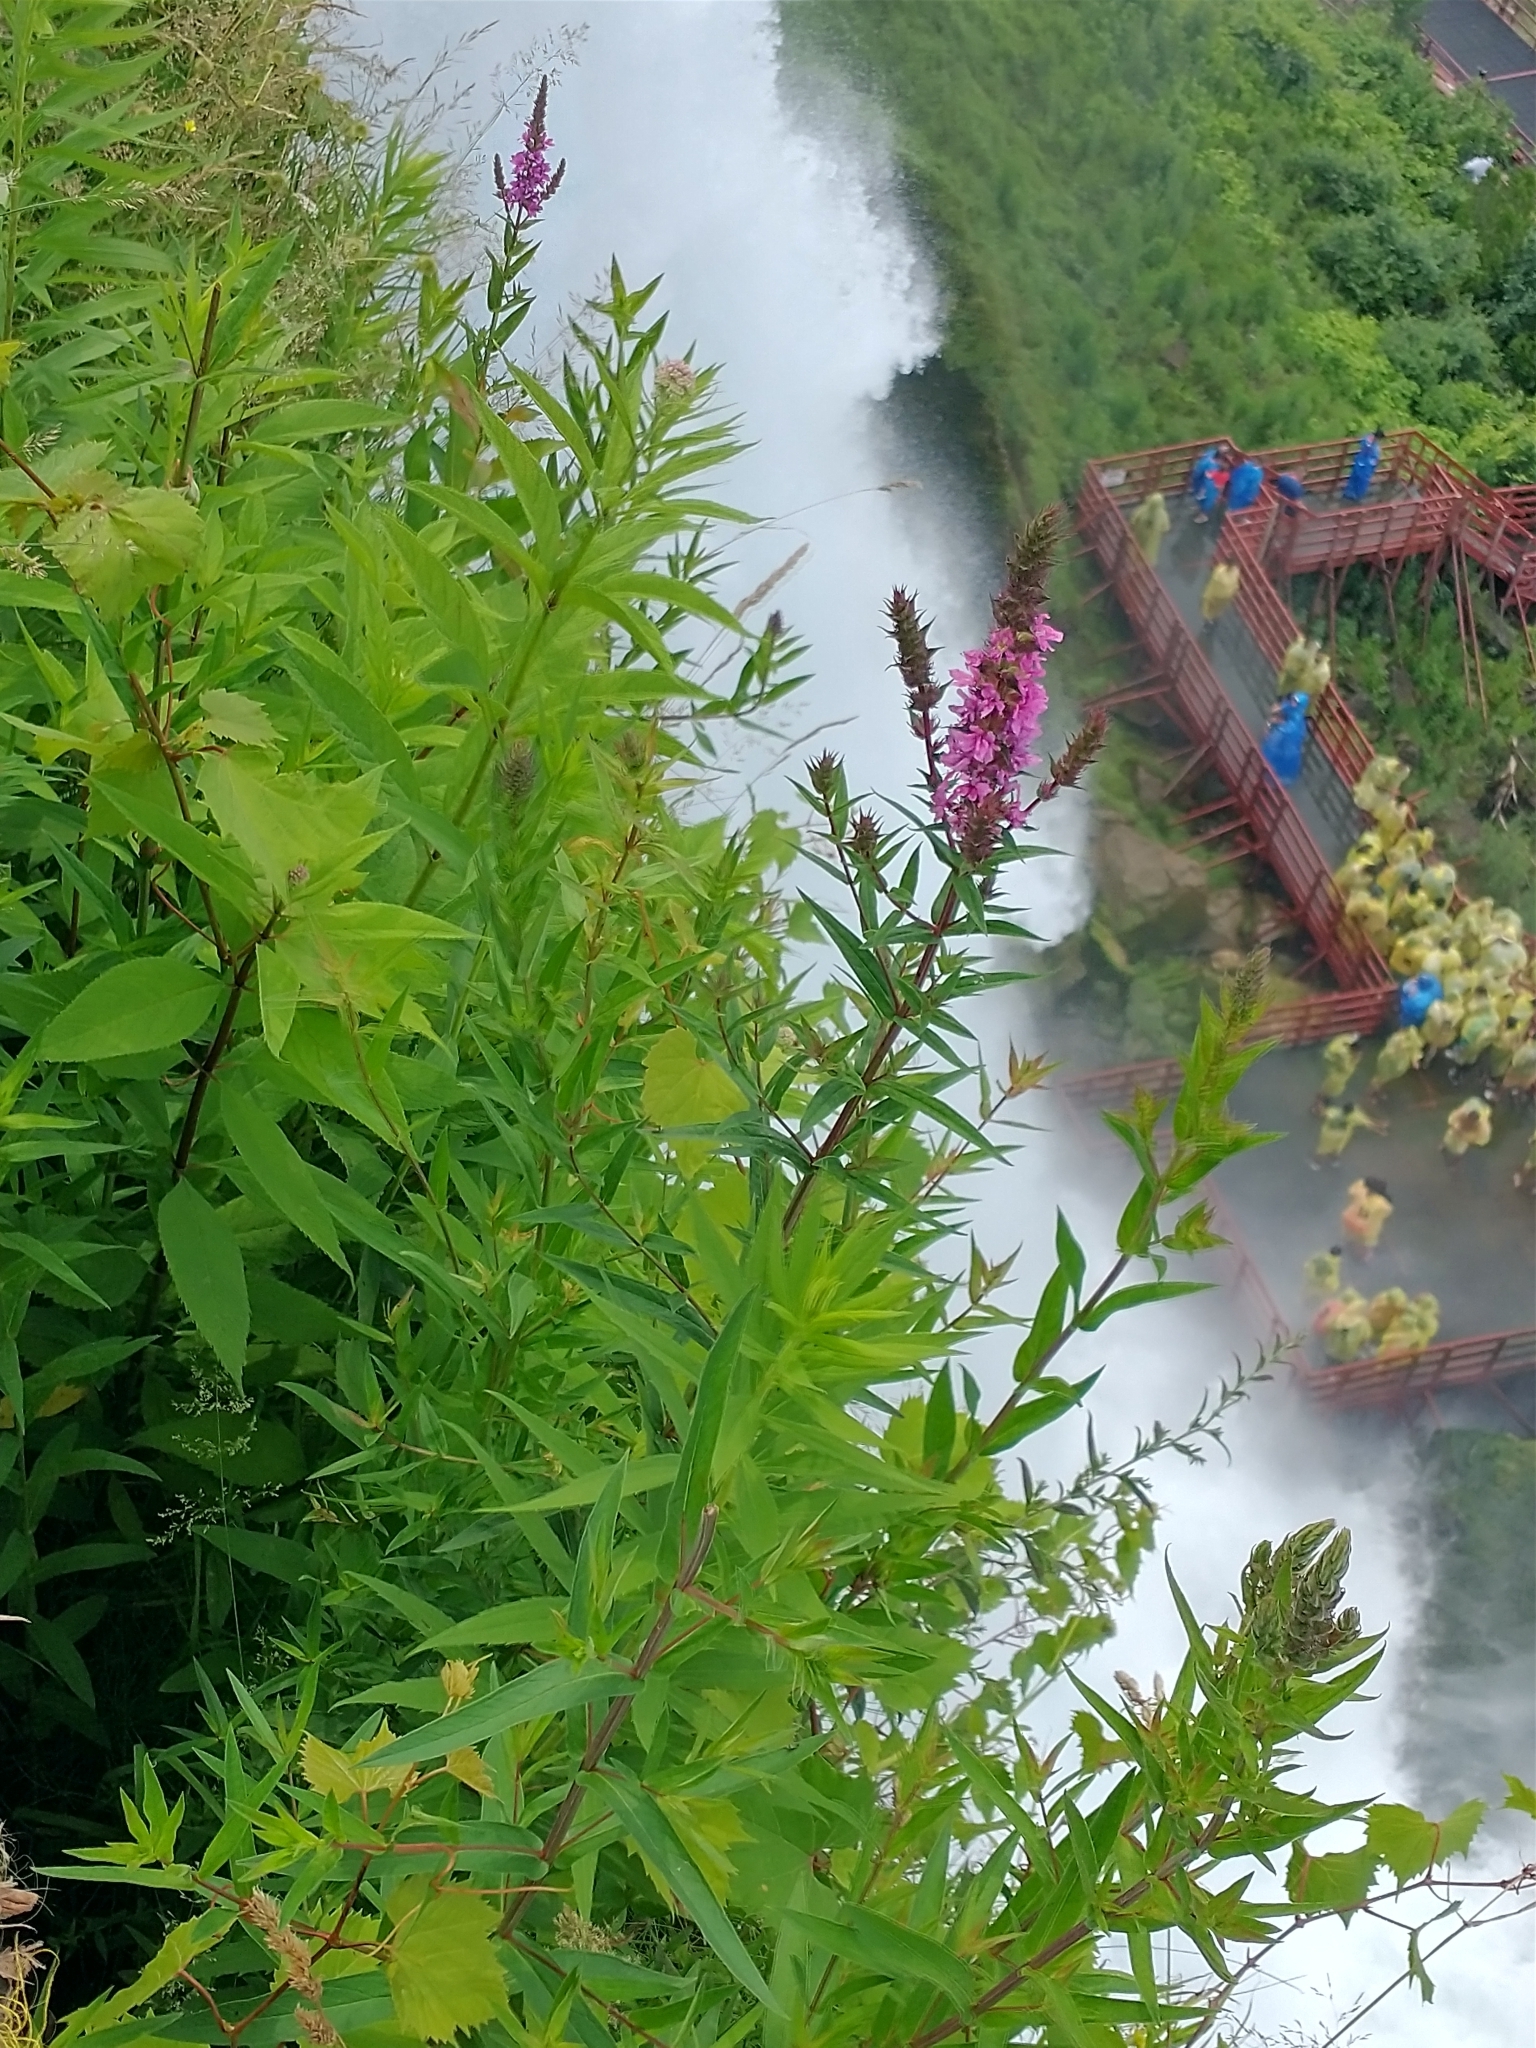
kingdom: Plantae
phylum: Tracheophyta
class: Magnoliopsida
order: Myrtales
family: Lythraceae
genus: Lythrum
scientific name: Lythrum salicaria
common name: Purple loosestrife
